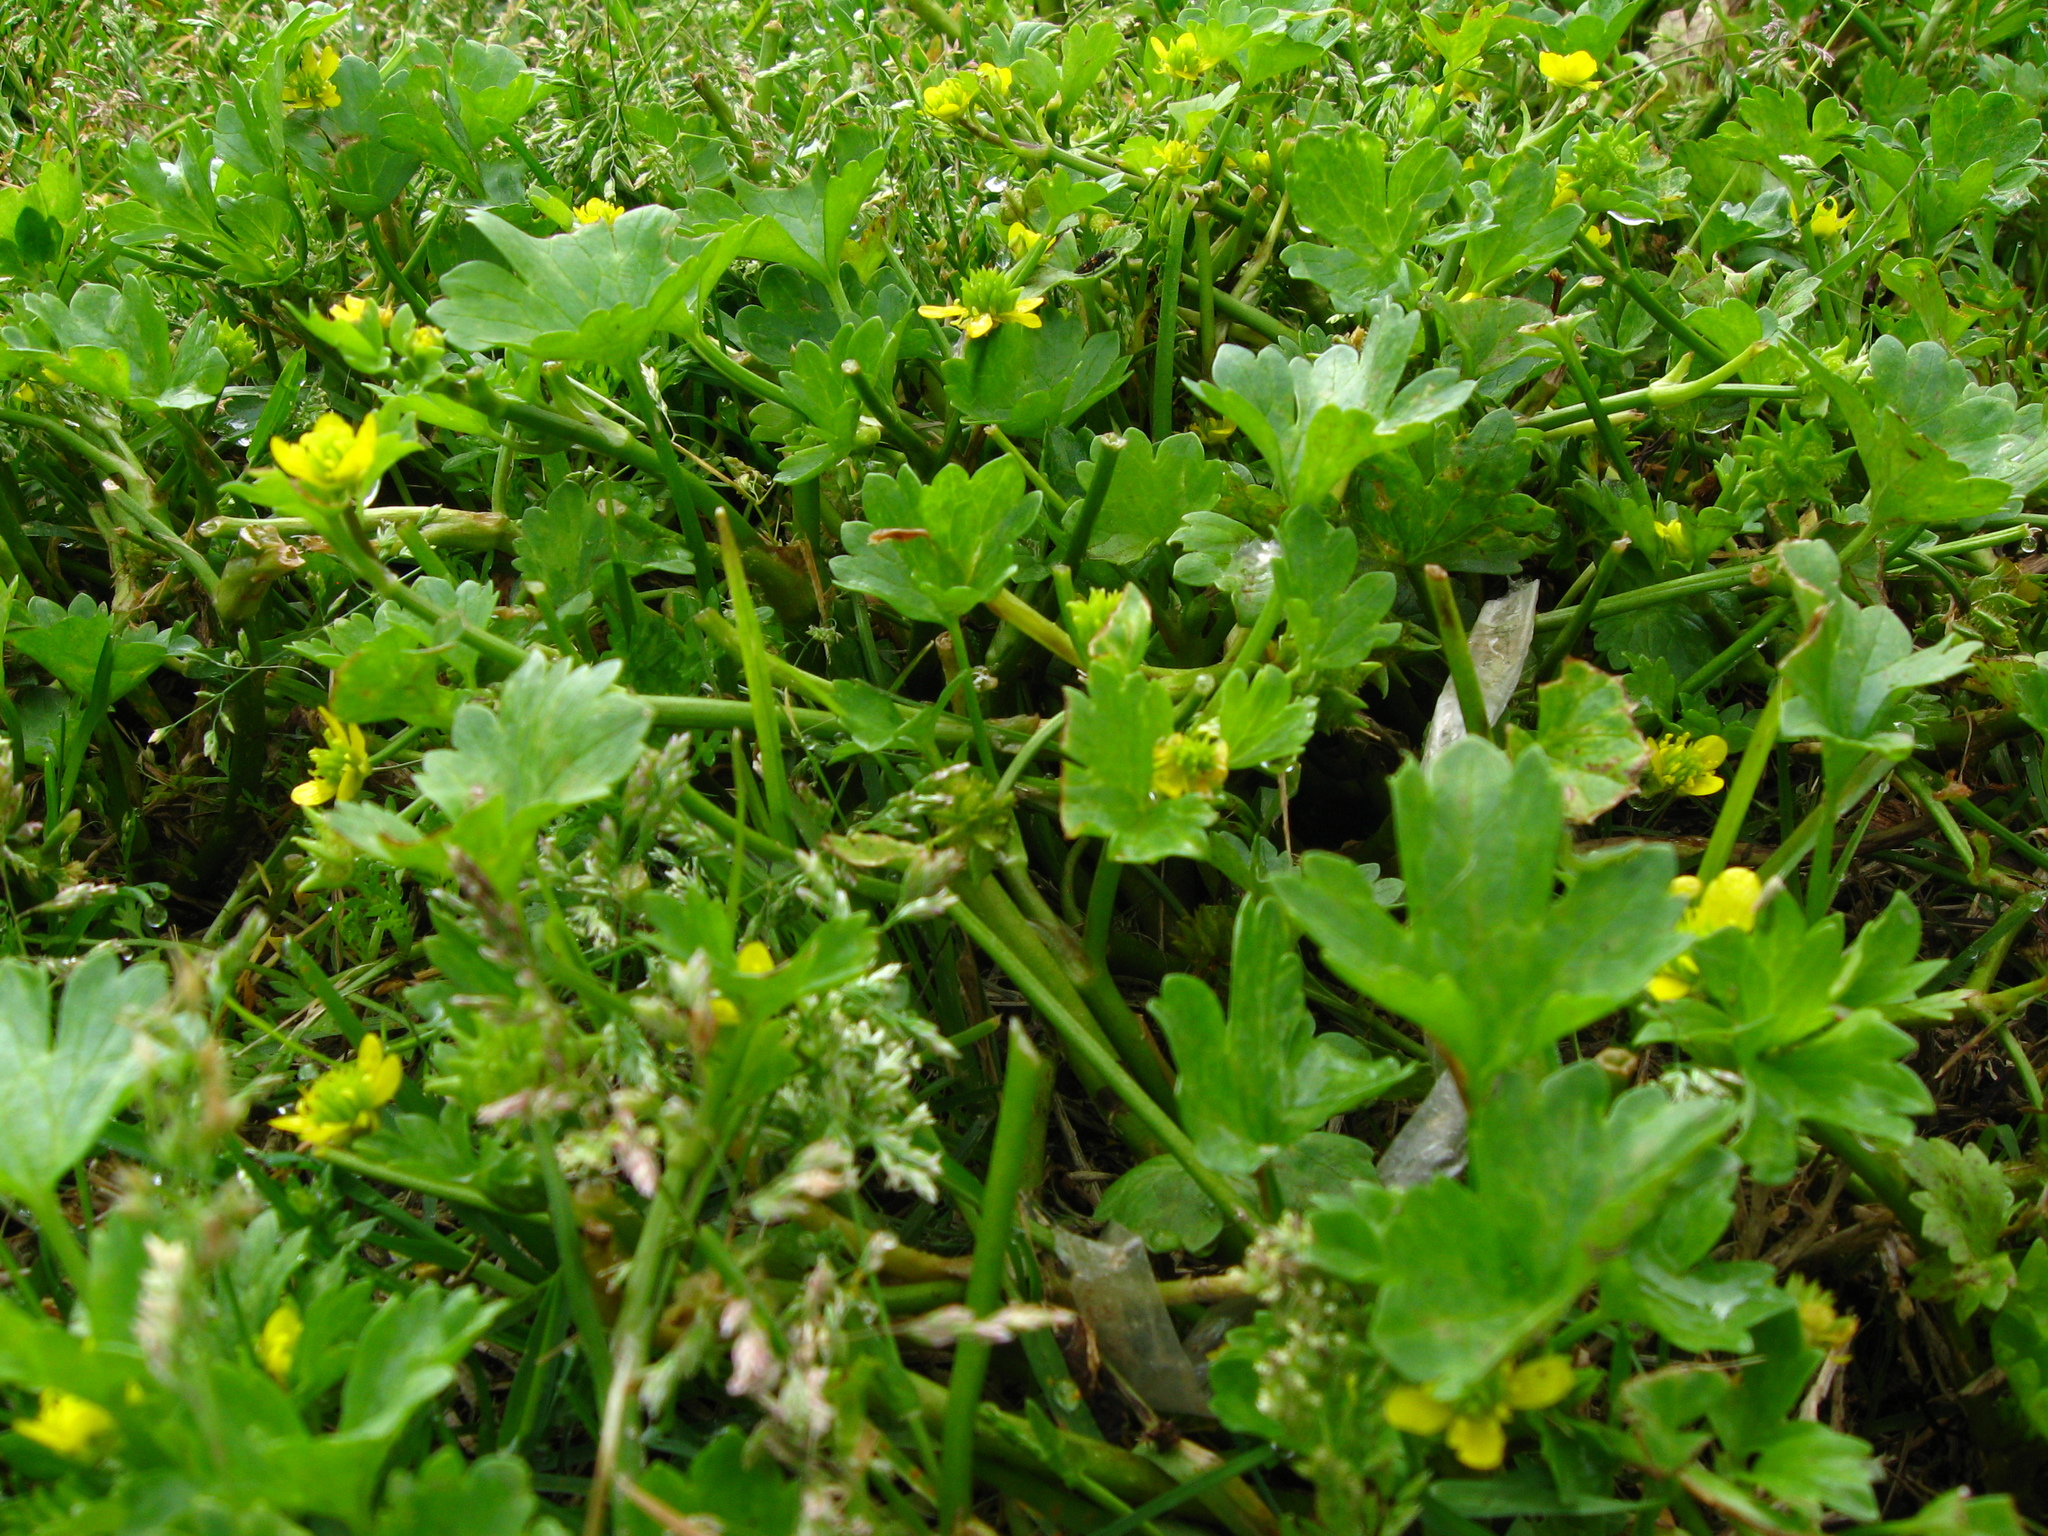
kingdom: Plantae
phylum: Tracheophyta
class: Magnoliopsida
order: Ranunculales
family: Ranunculaceae
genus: Ranunculus
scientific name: Ranunculus muricatus
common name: Rough-fruited buttercup
